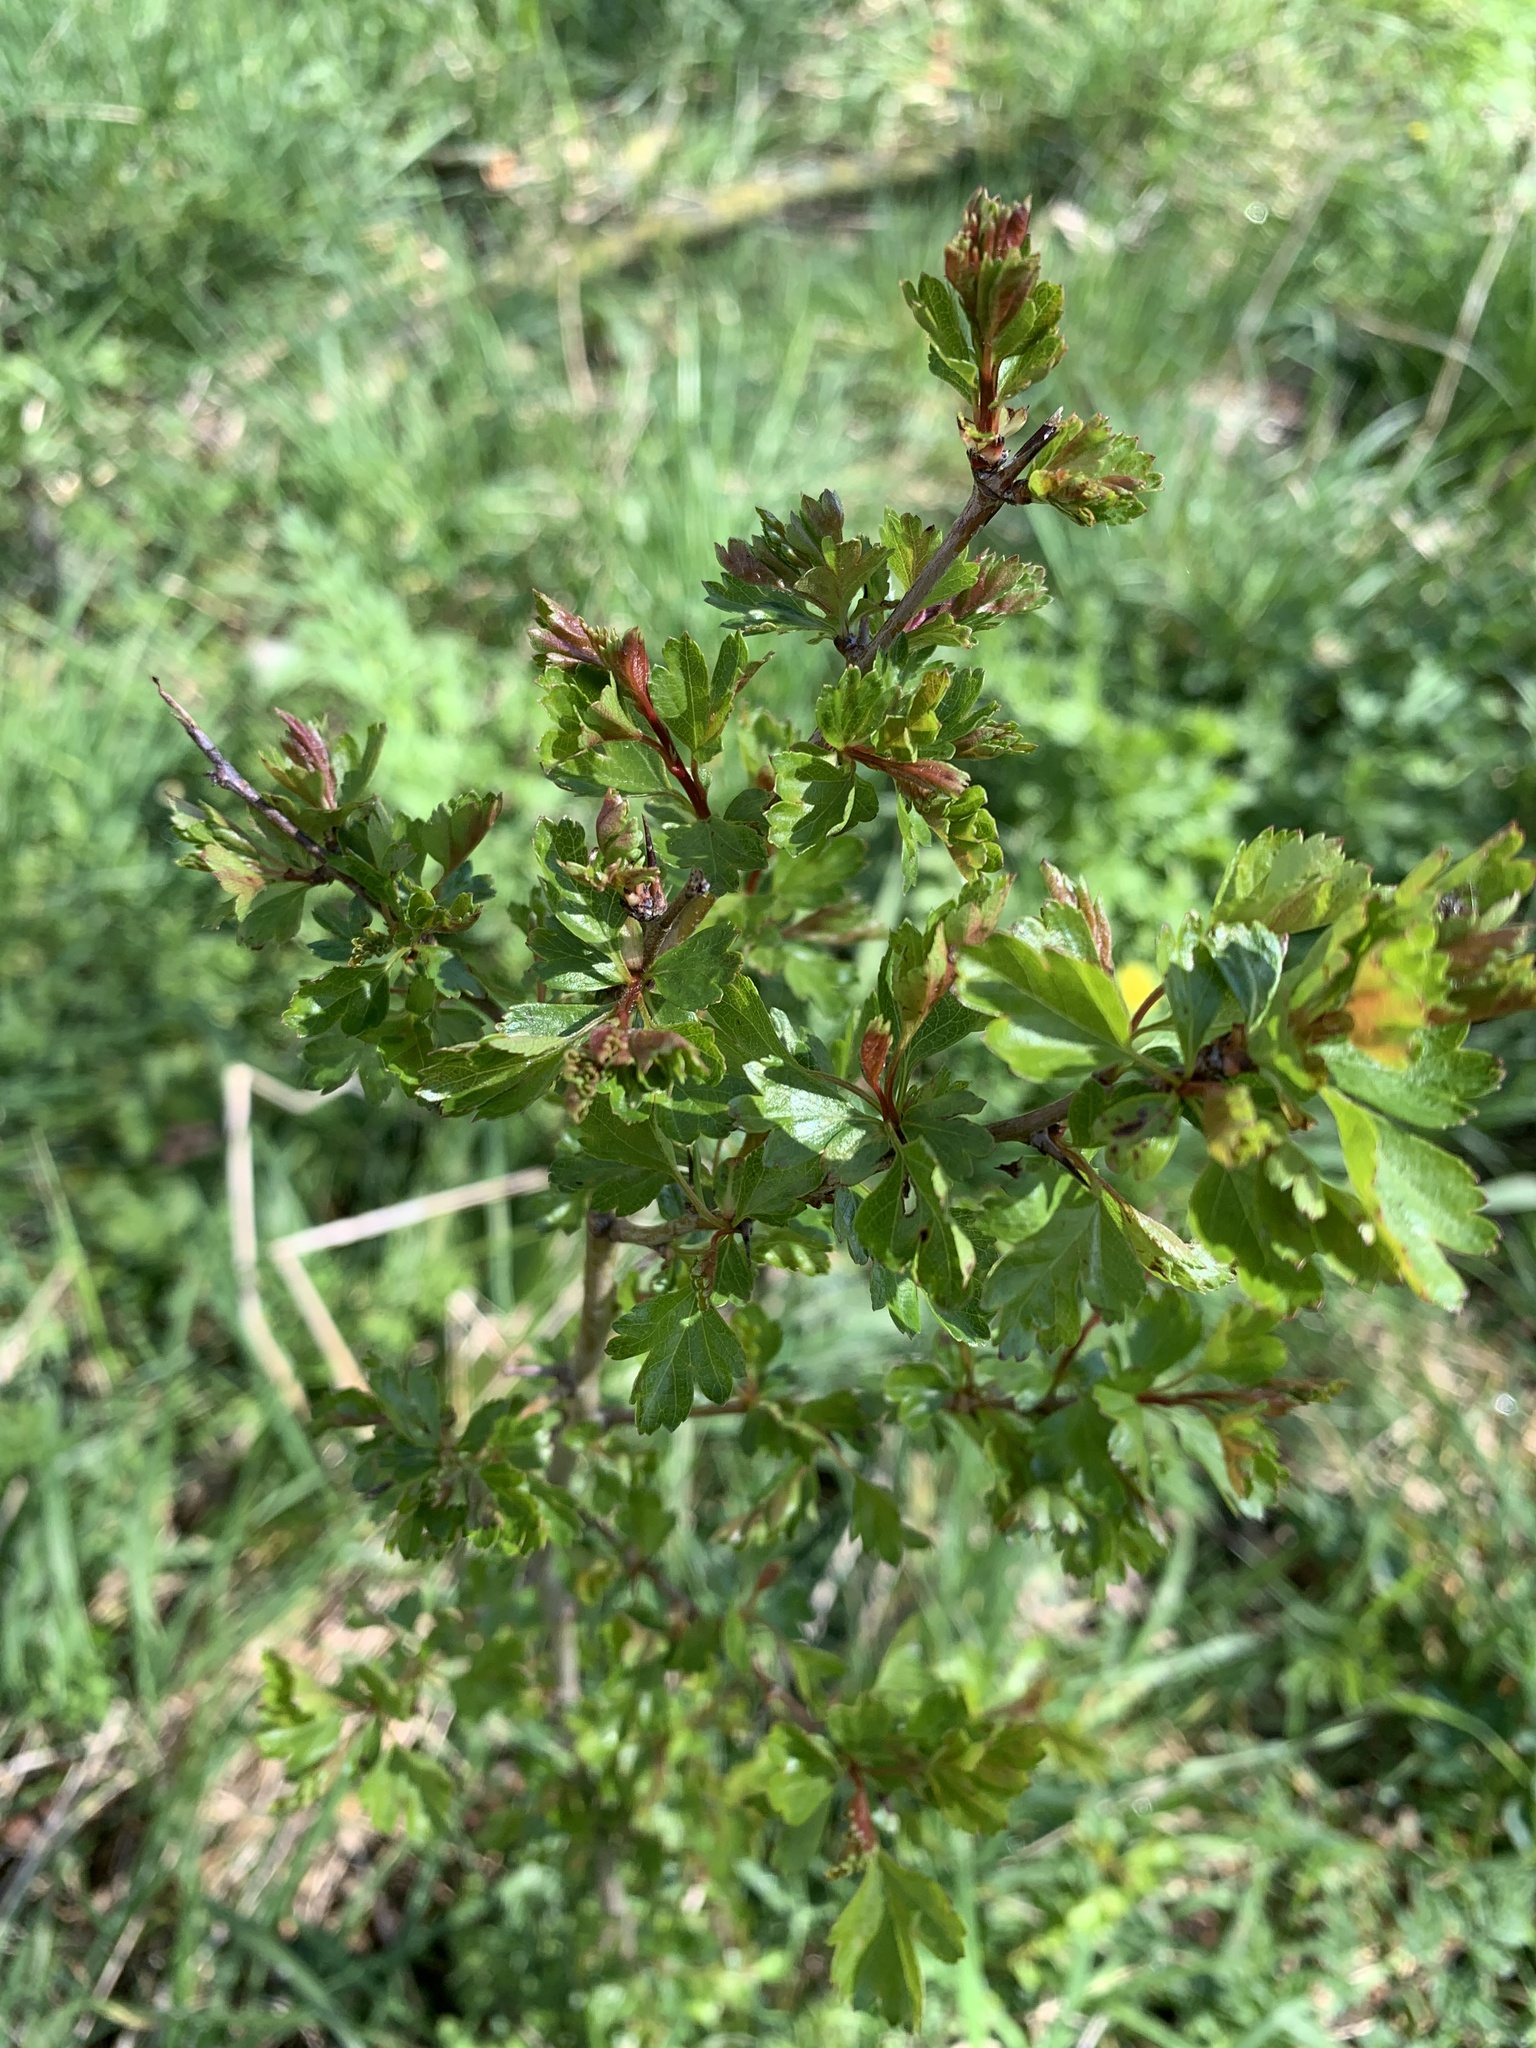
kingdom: Plantae
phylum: Tracheophyta
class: Magnoliopsida
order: Rosales
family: Rosaceae
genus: Crataegus
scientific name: Crataegus monogyna
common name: Hawthorn
